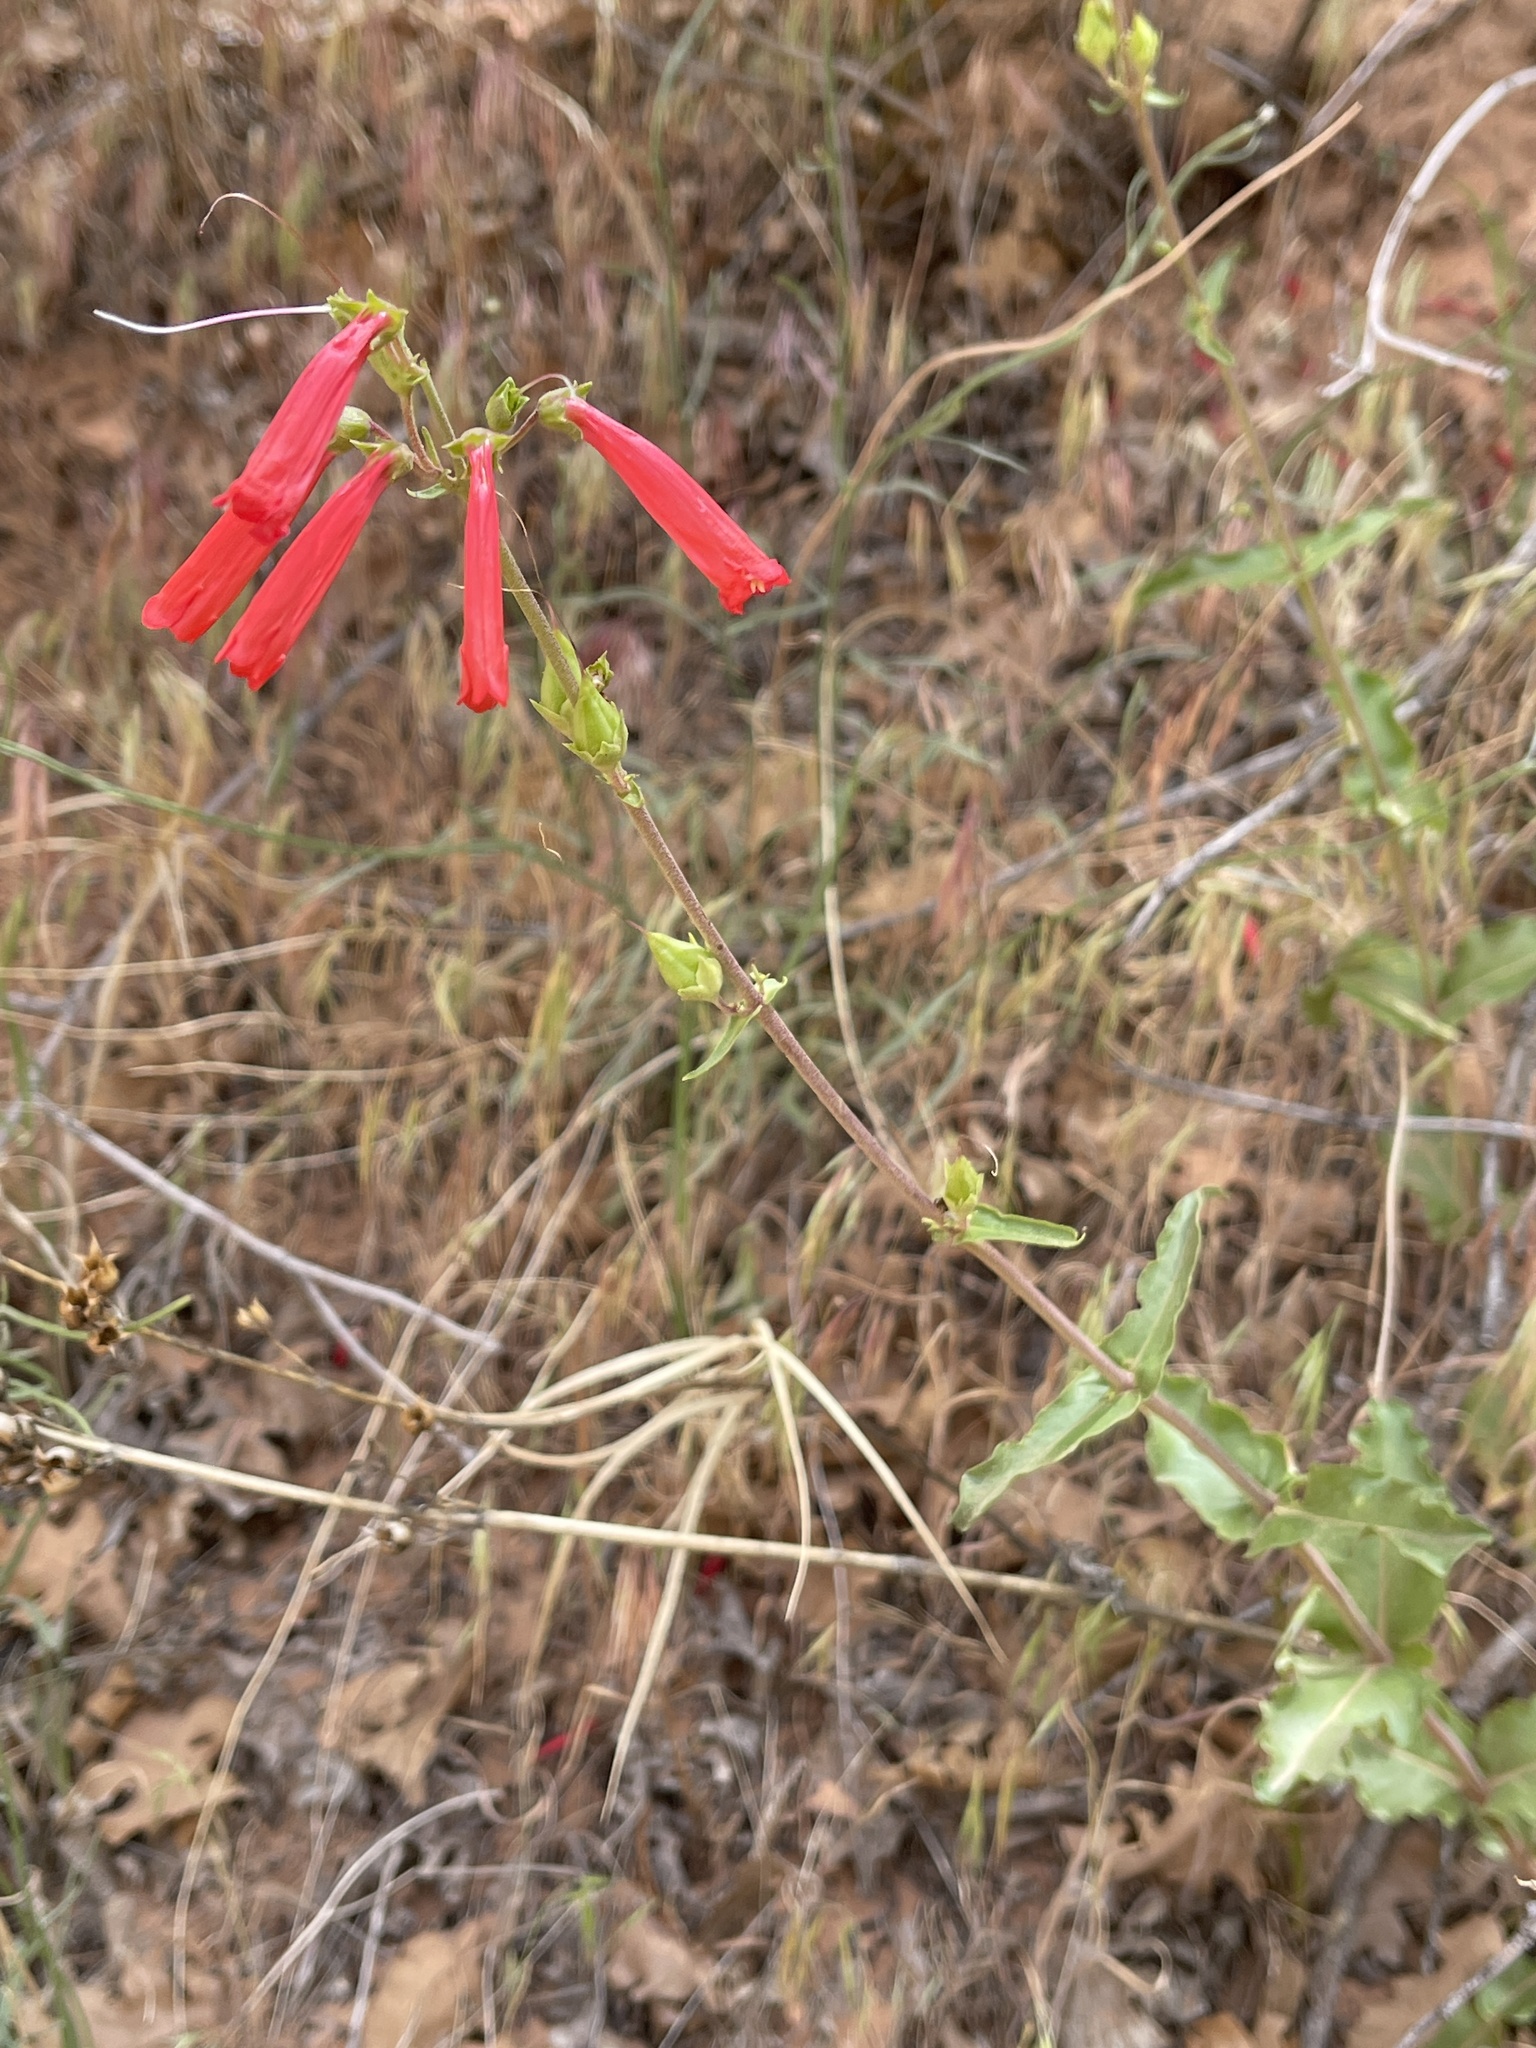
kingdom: Plantae
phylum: Tracheophyta
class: Magnoliopsida
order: Lamiales
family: Plantaginaceae
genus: Penstemon
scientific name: Penstemon eatonii
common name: Eaton's penstemon
